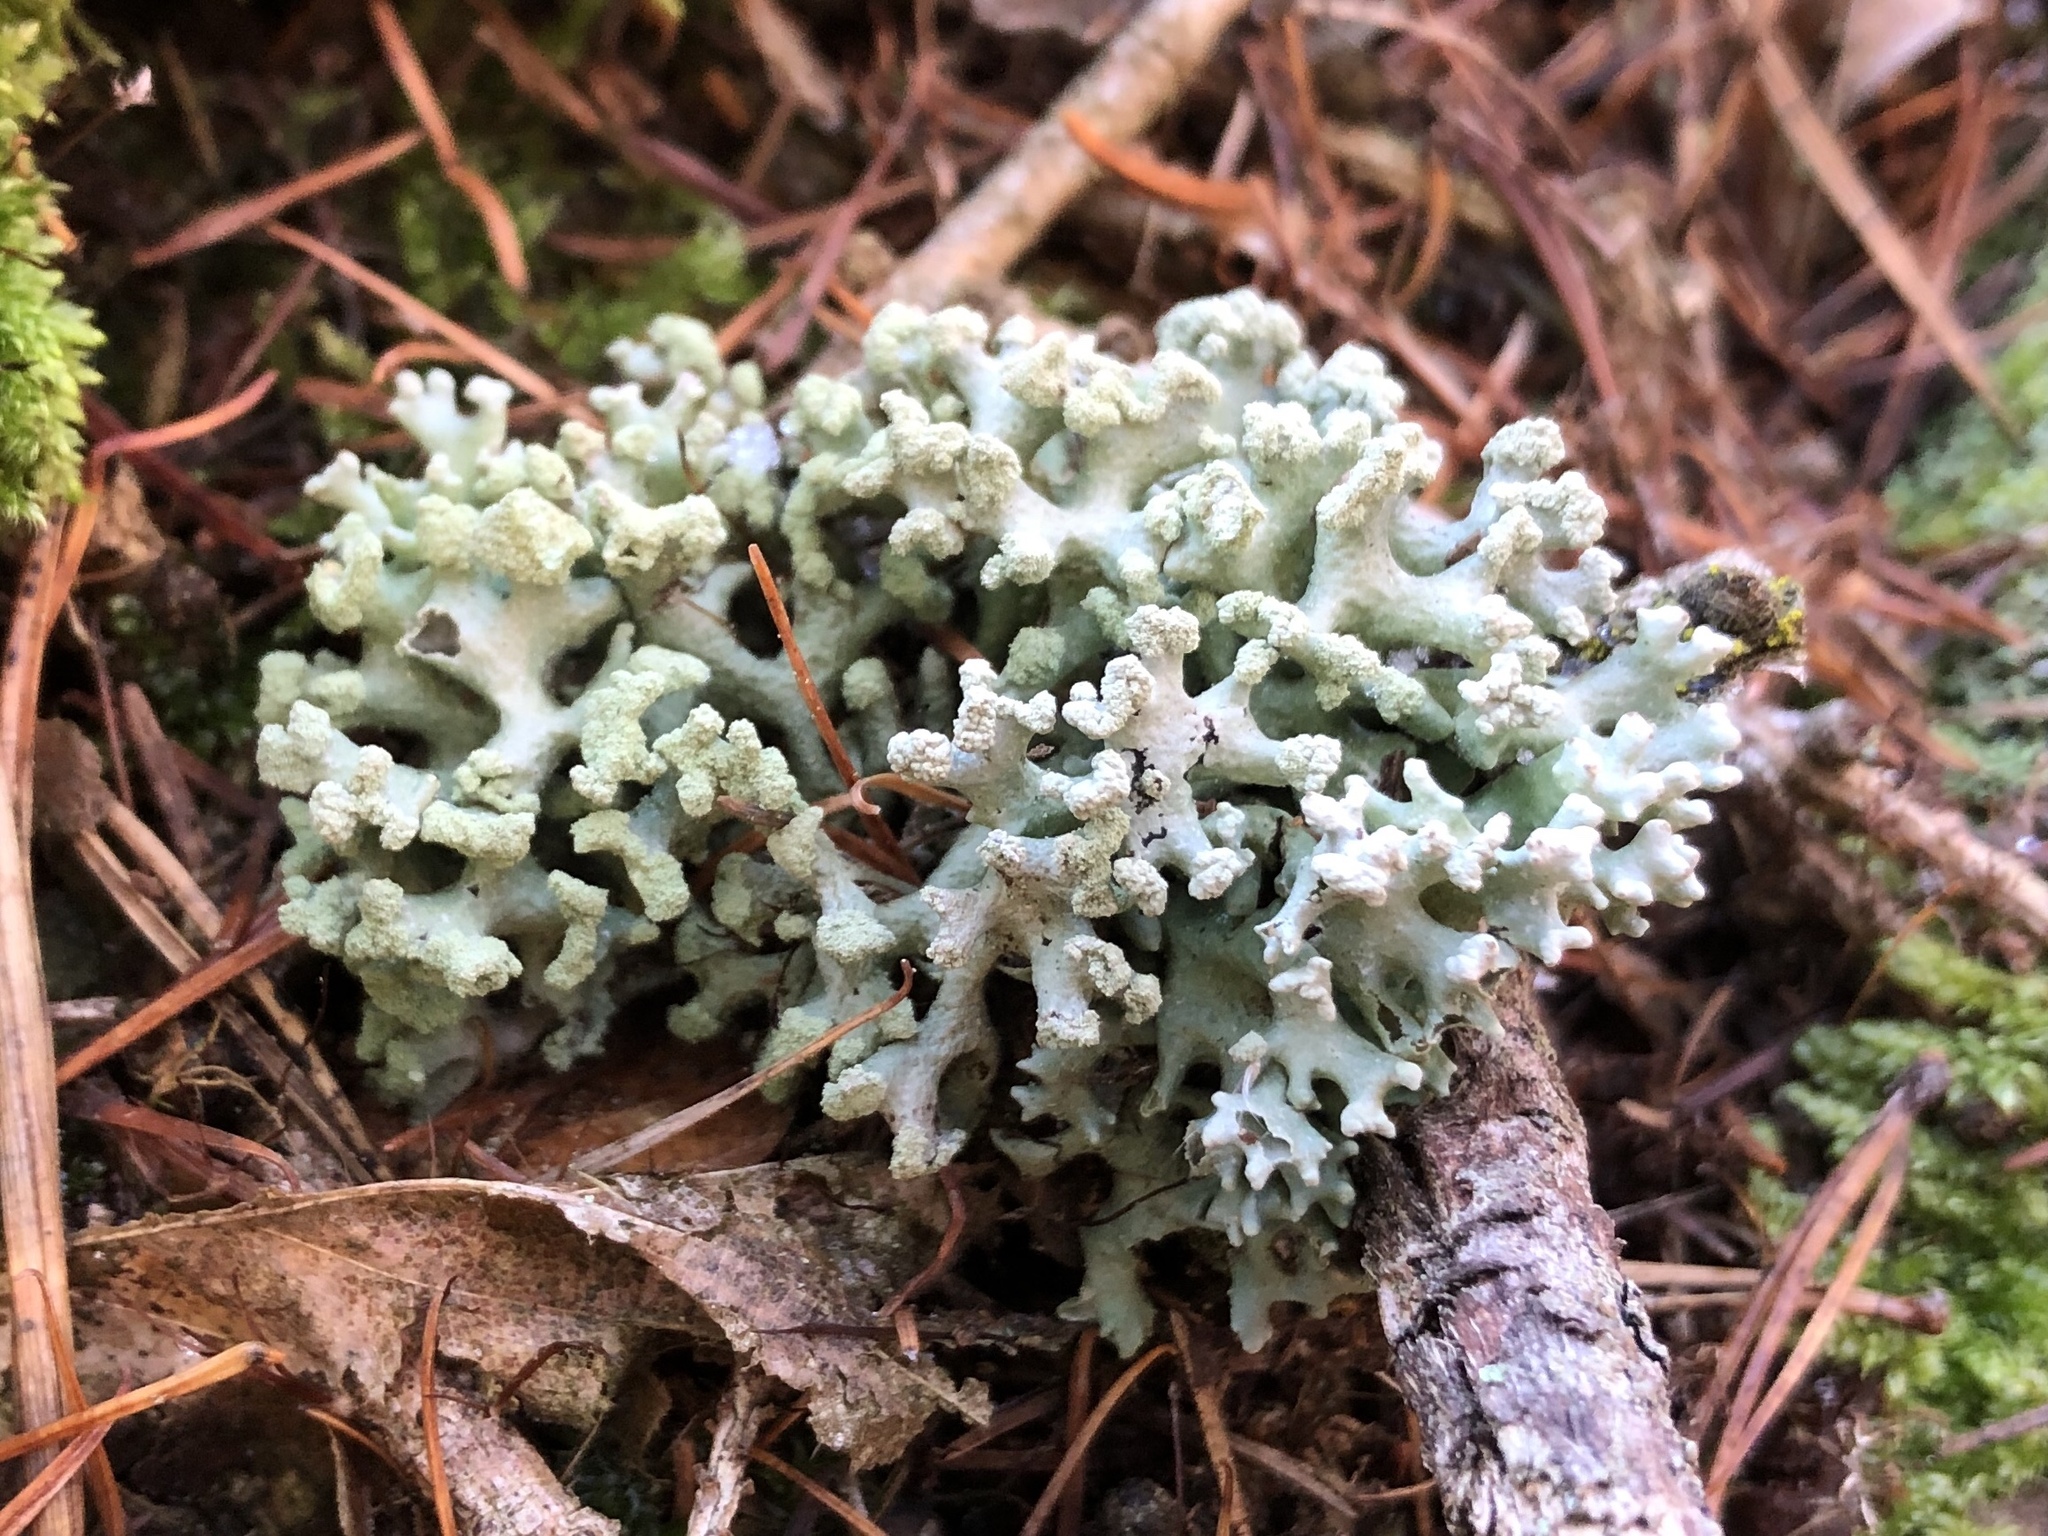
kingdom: Fungi
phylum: Ascomycota
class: Lecanoromycetes
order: Lecanorales
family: Parmeliaceae
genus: Hypogymnia
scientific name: Hypogymnia tubulosa
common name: Powder-headed tube lichen
